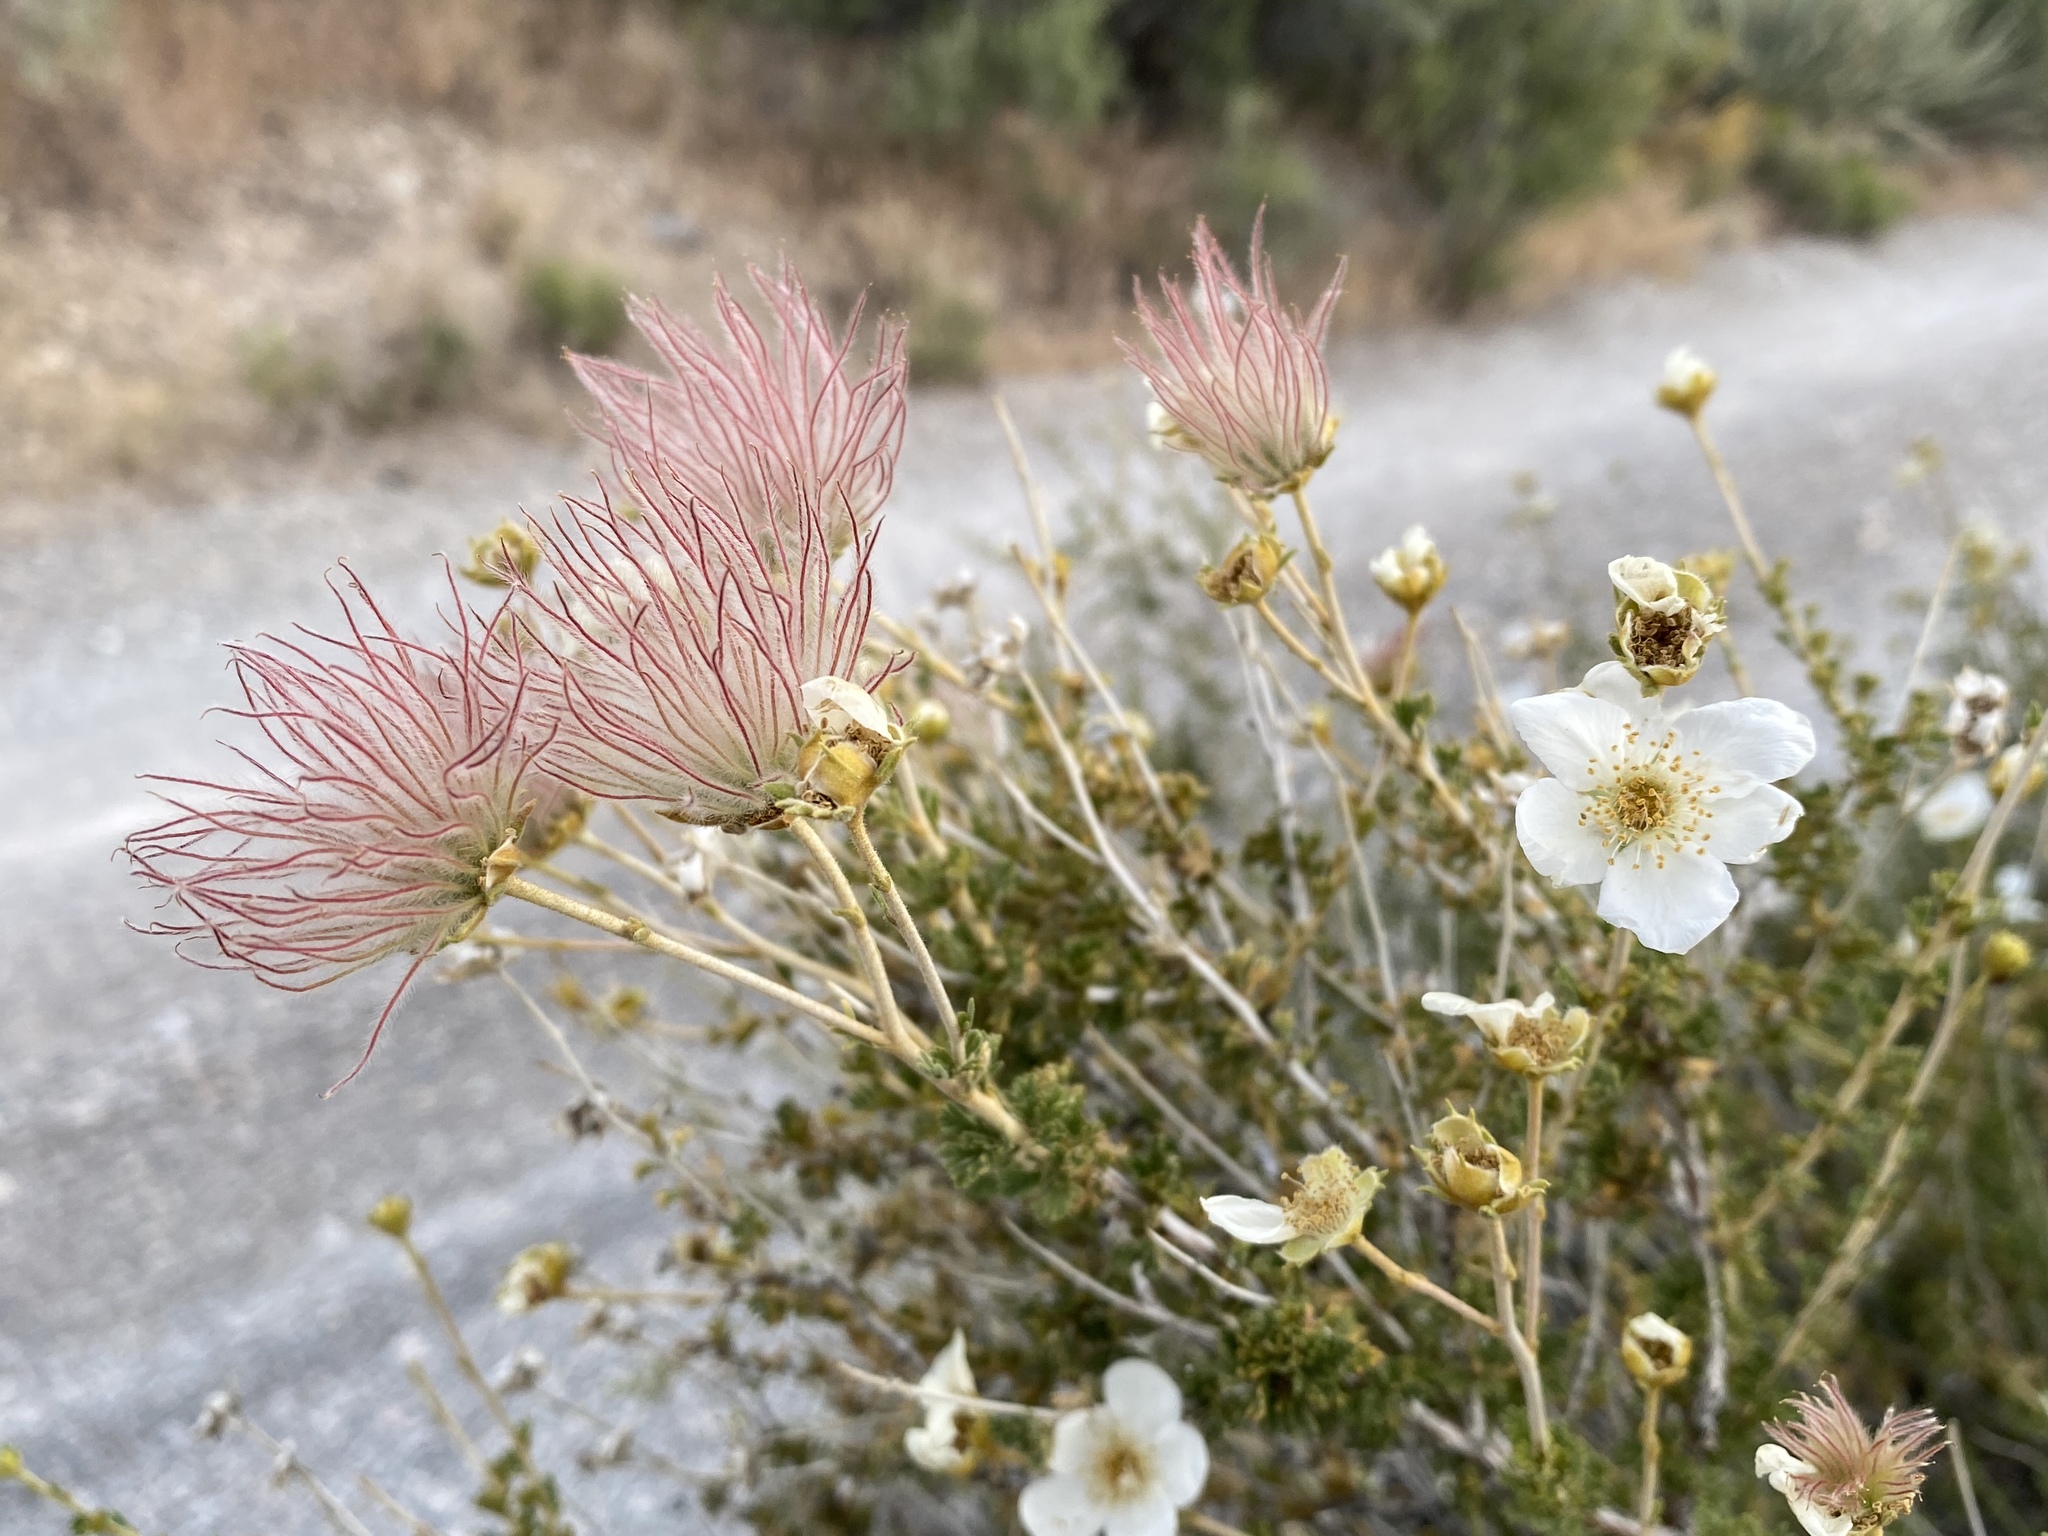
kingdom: Plantae
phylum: Tracheophyta
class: Magnoliopsida
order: Rosales
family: Rosaceae
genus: Fallugia
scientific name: Fallugia paradoxa
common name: Apache-plume
